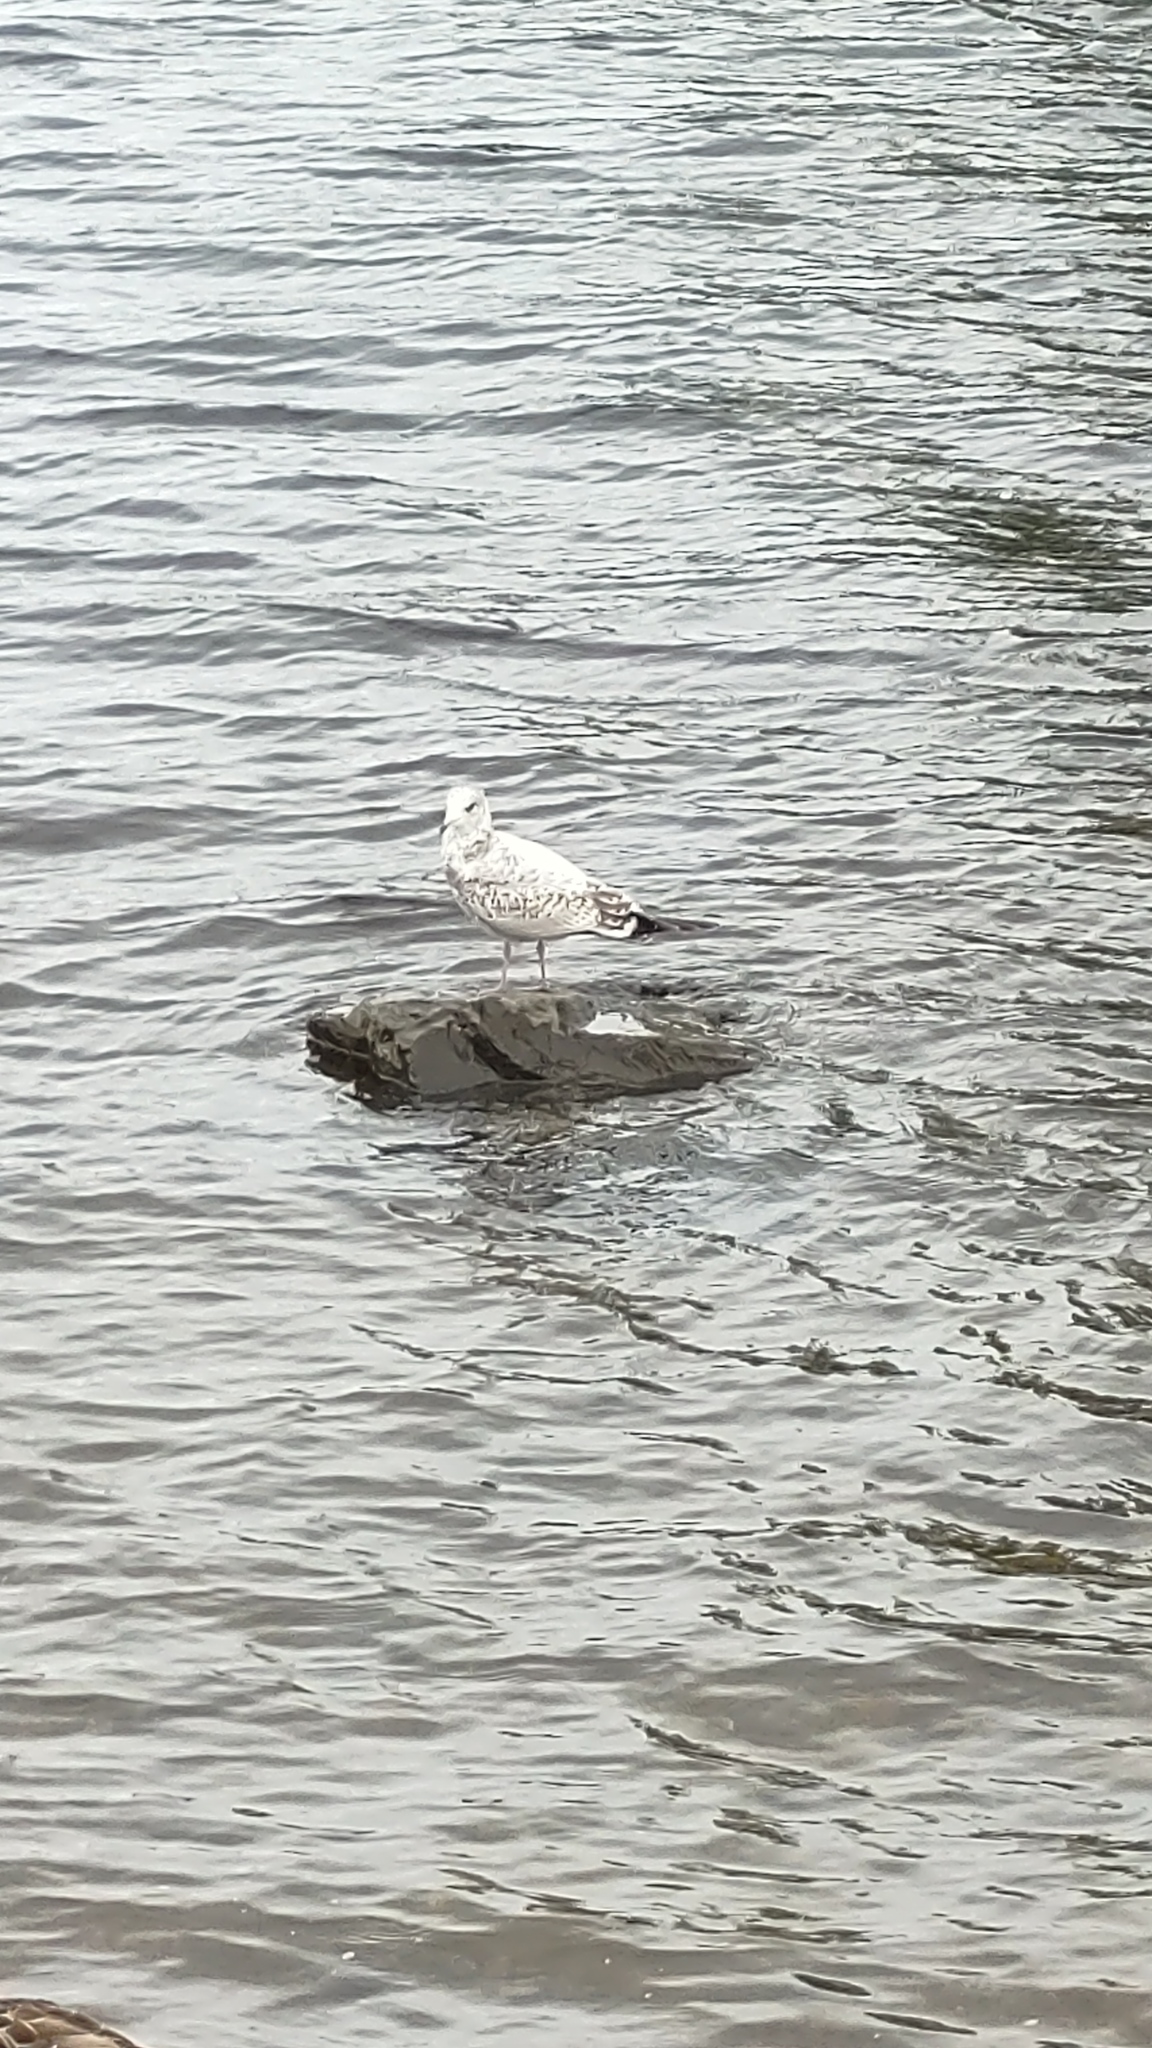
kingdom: Animalia
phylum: Chordata
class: Aves
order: Charadriiformes
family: Laridae
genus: Larus
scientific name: Larus delawarensis
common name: Ring-billed gull
